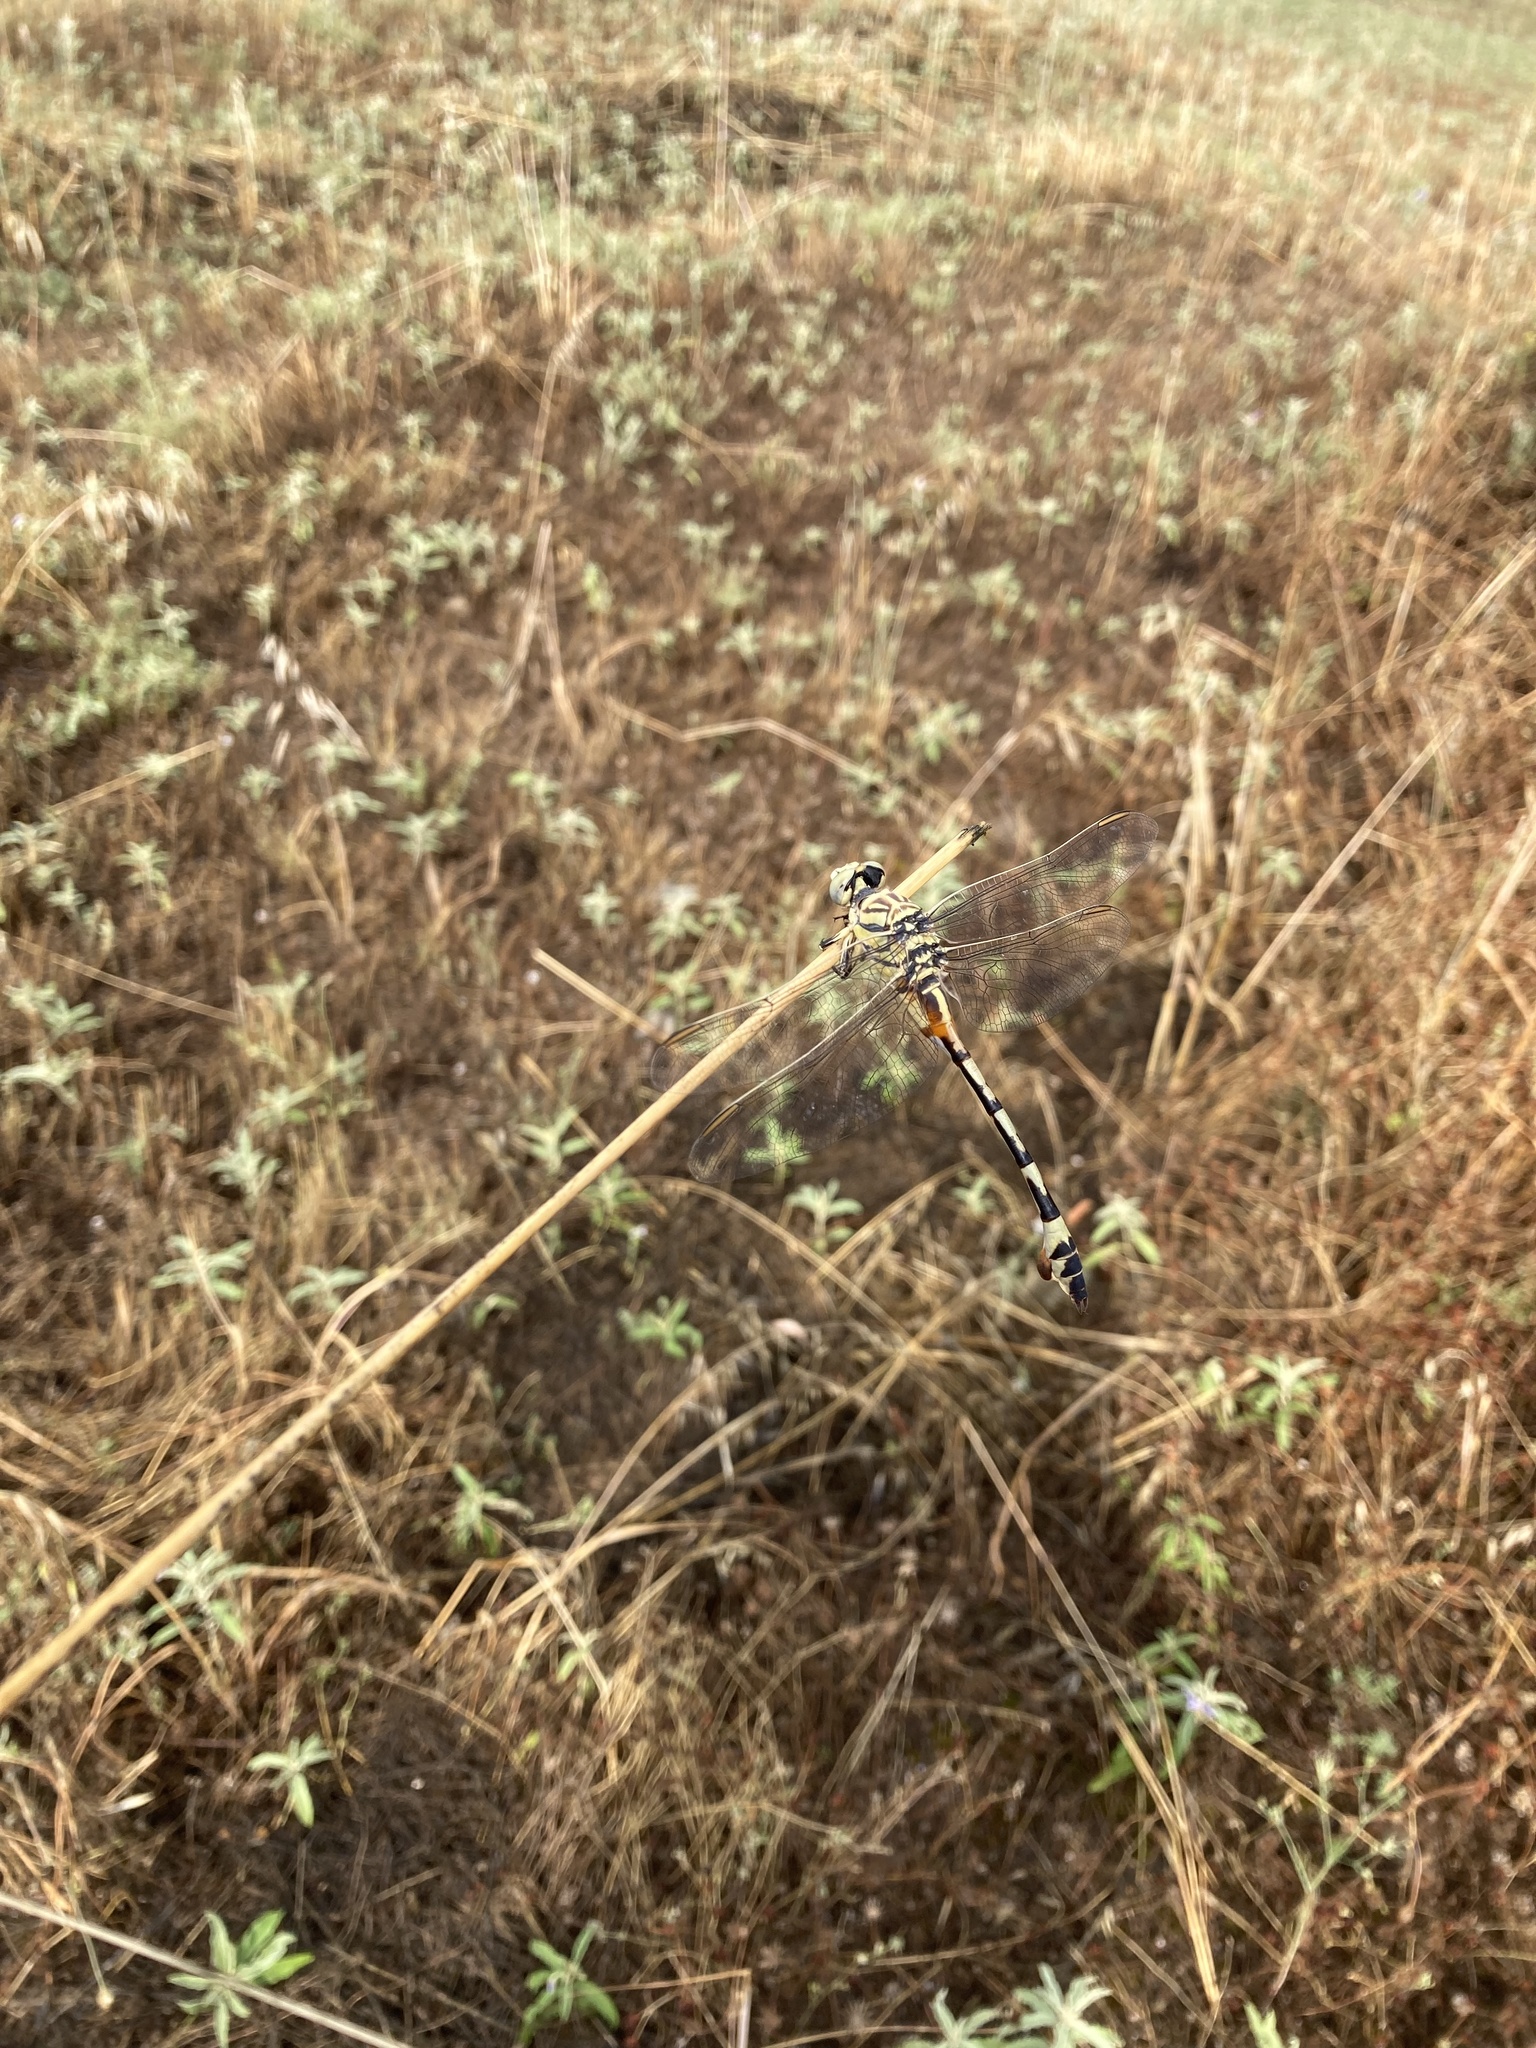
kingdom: Animalia
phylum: Arthropoda
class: Insecta
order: Odonata
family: Gomphidae
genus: Lindenia
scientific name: Lindenia tetraphylla
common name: Bladetail
